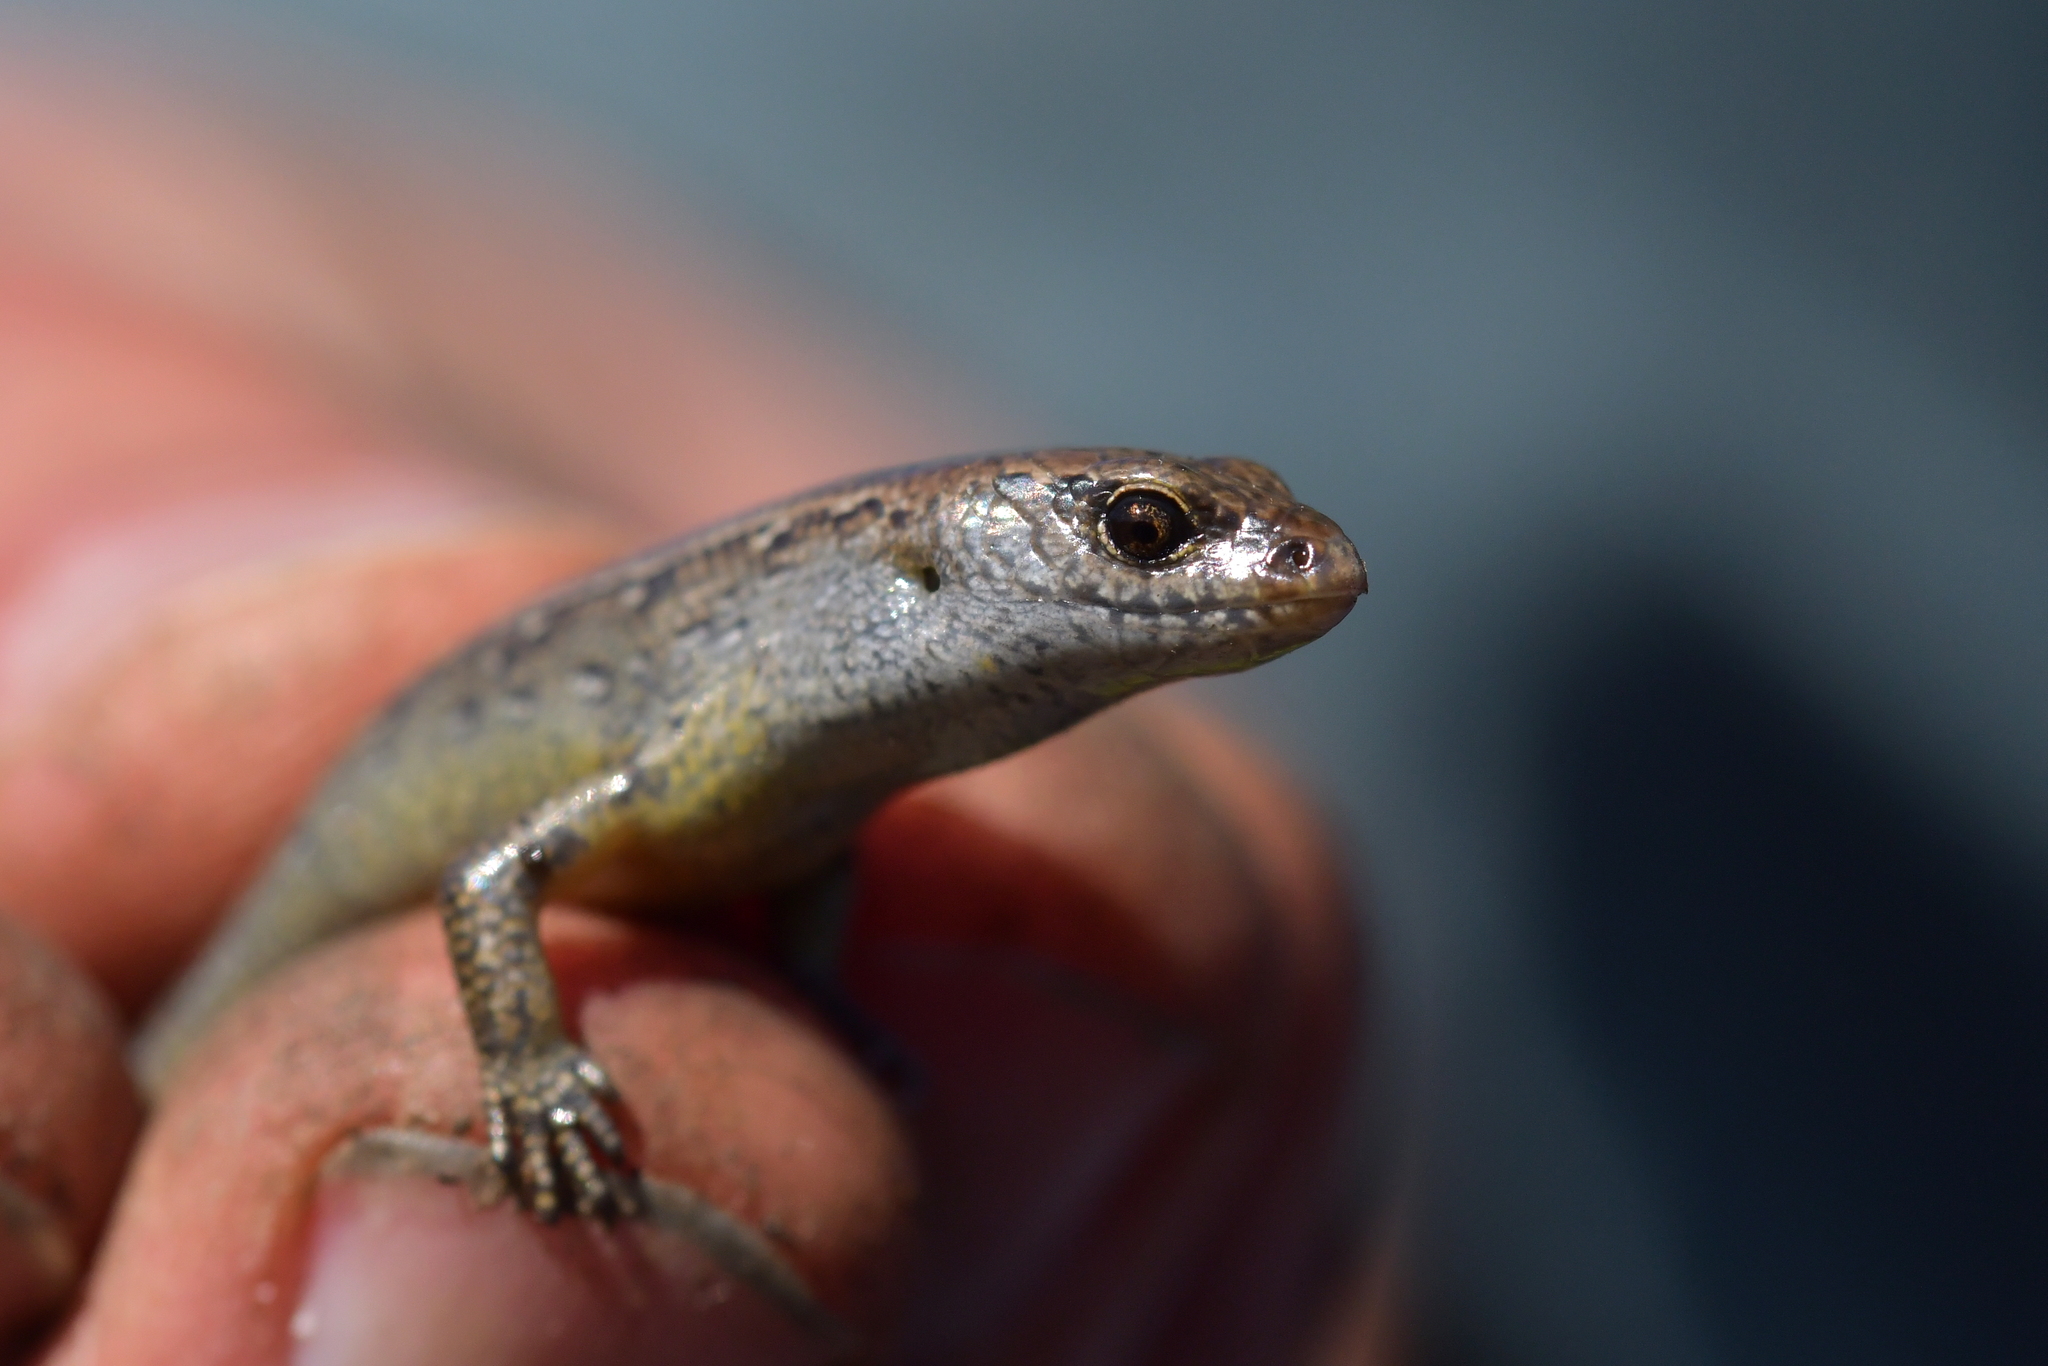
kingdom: Animalia
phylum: Chordata
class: Squamata
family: Scincidae
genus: Oligosoma
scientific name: Oligosoma aeneum
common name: Copper skink
